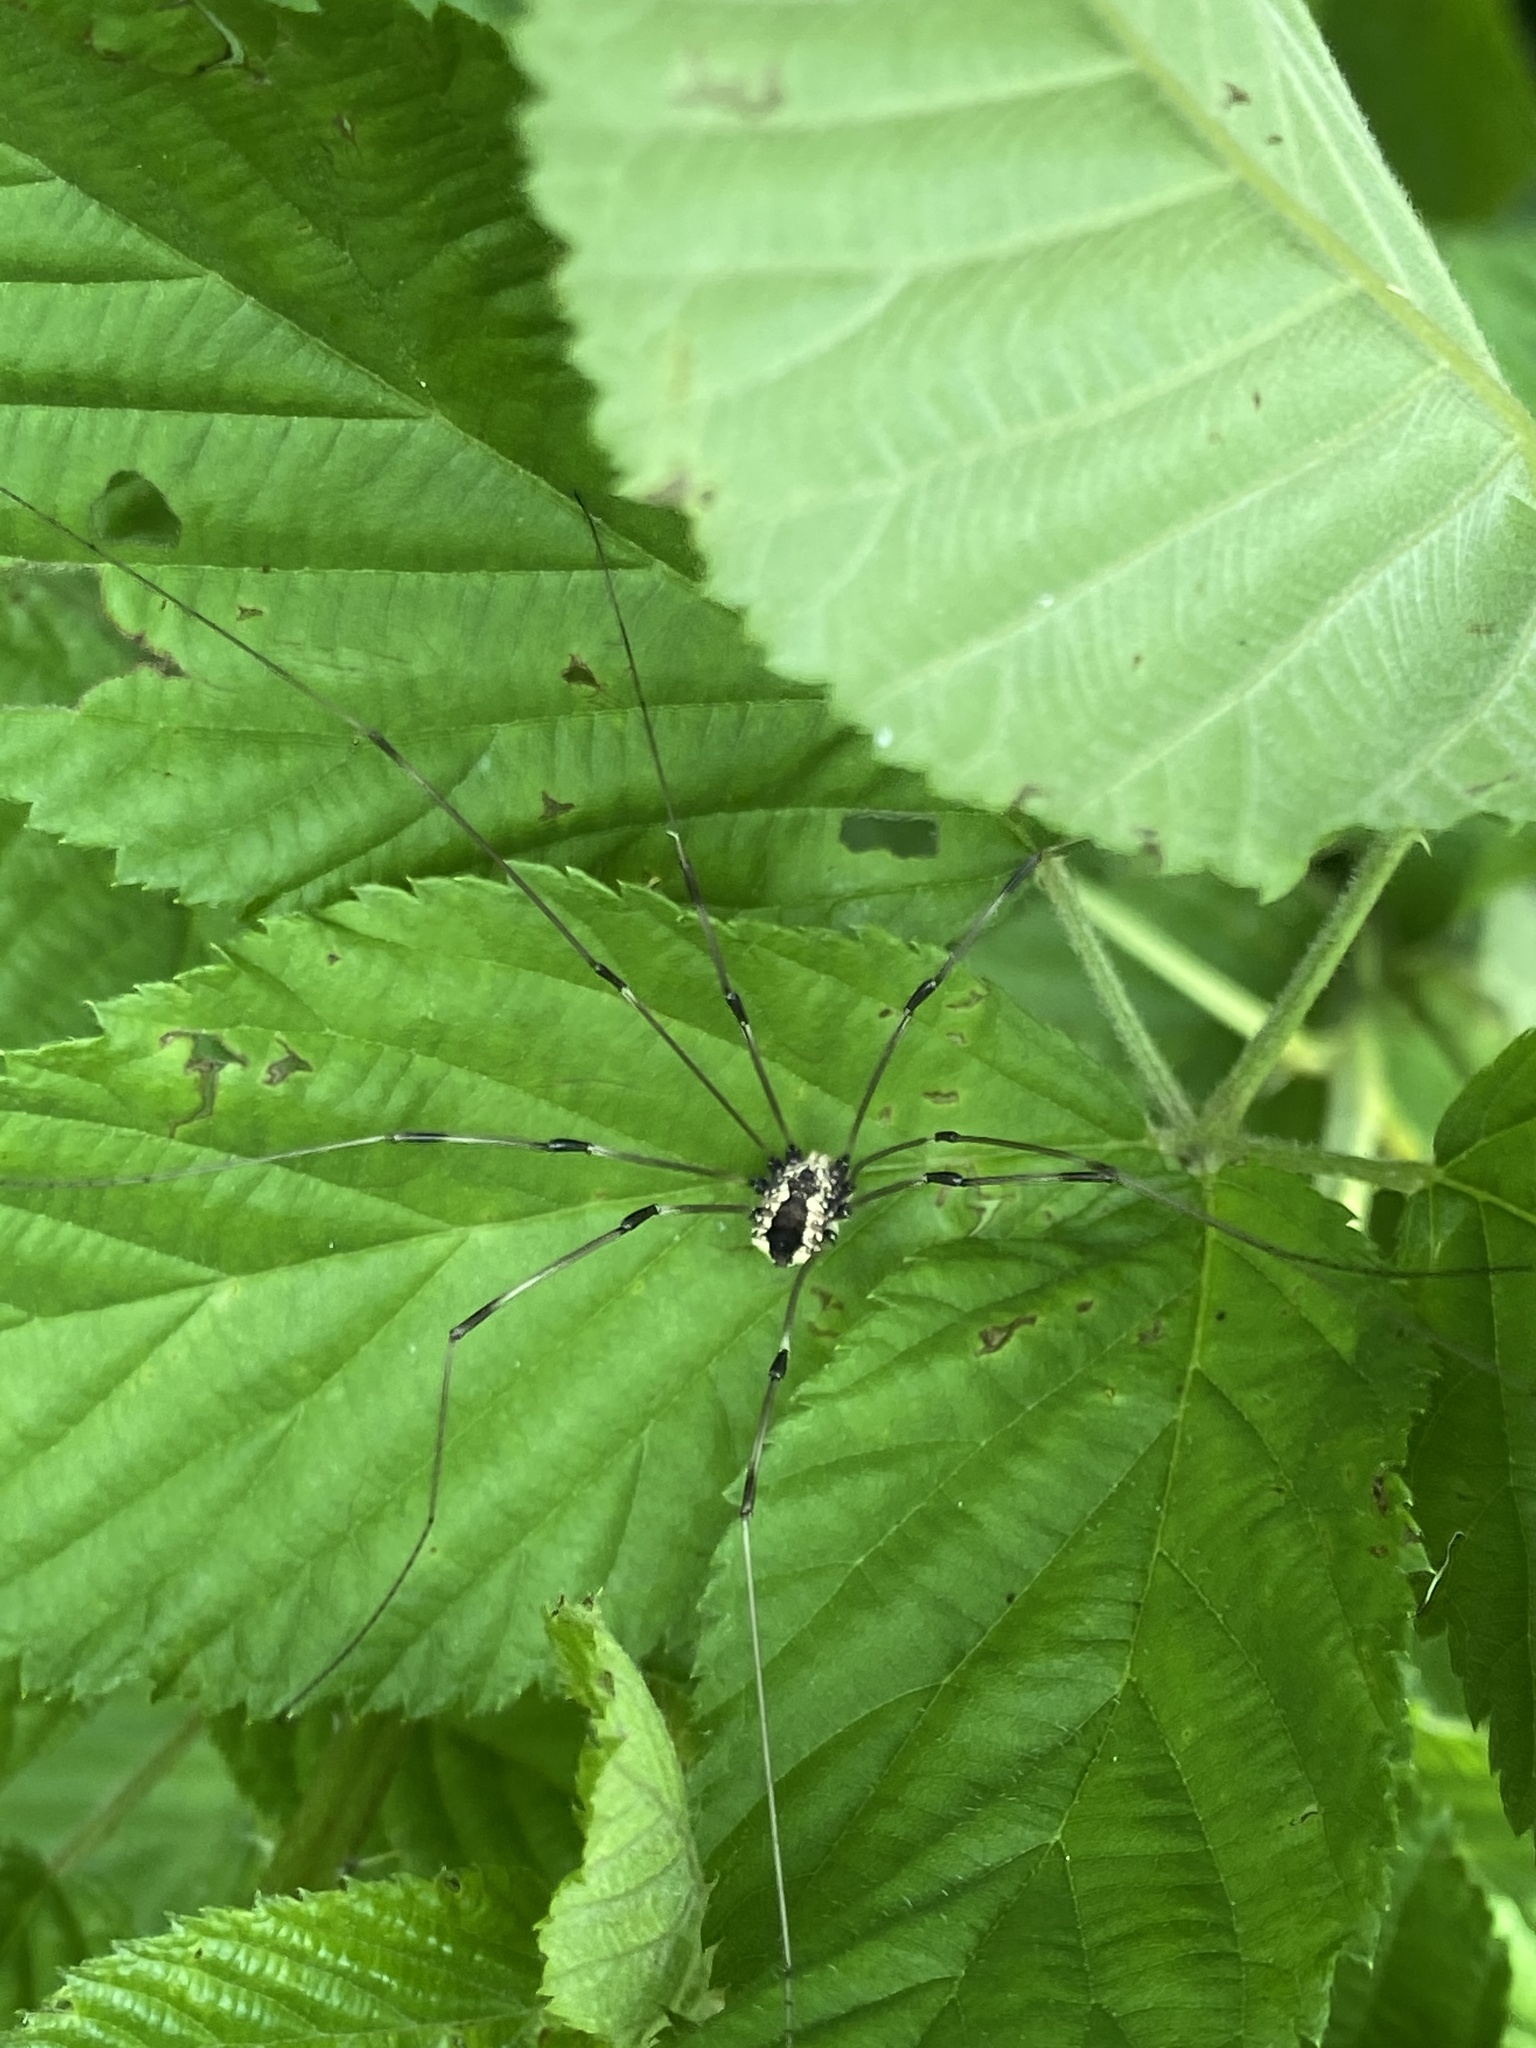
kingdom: Animalia
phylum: Arthropoda
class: Arachnida
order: Opiliones
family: Sclerosomatidae
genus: Leiobunum
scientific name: Leiobunum vittatum
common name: Eastern harvestman
